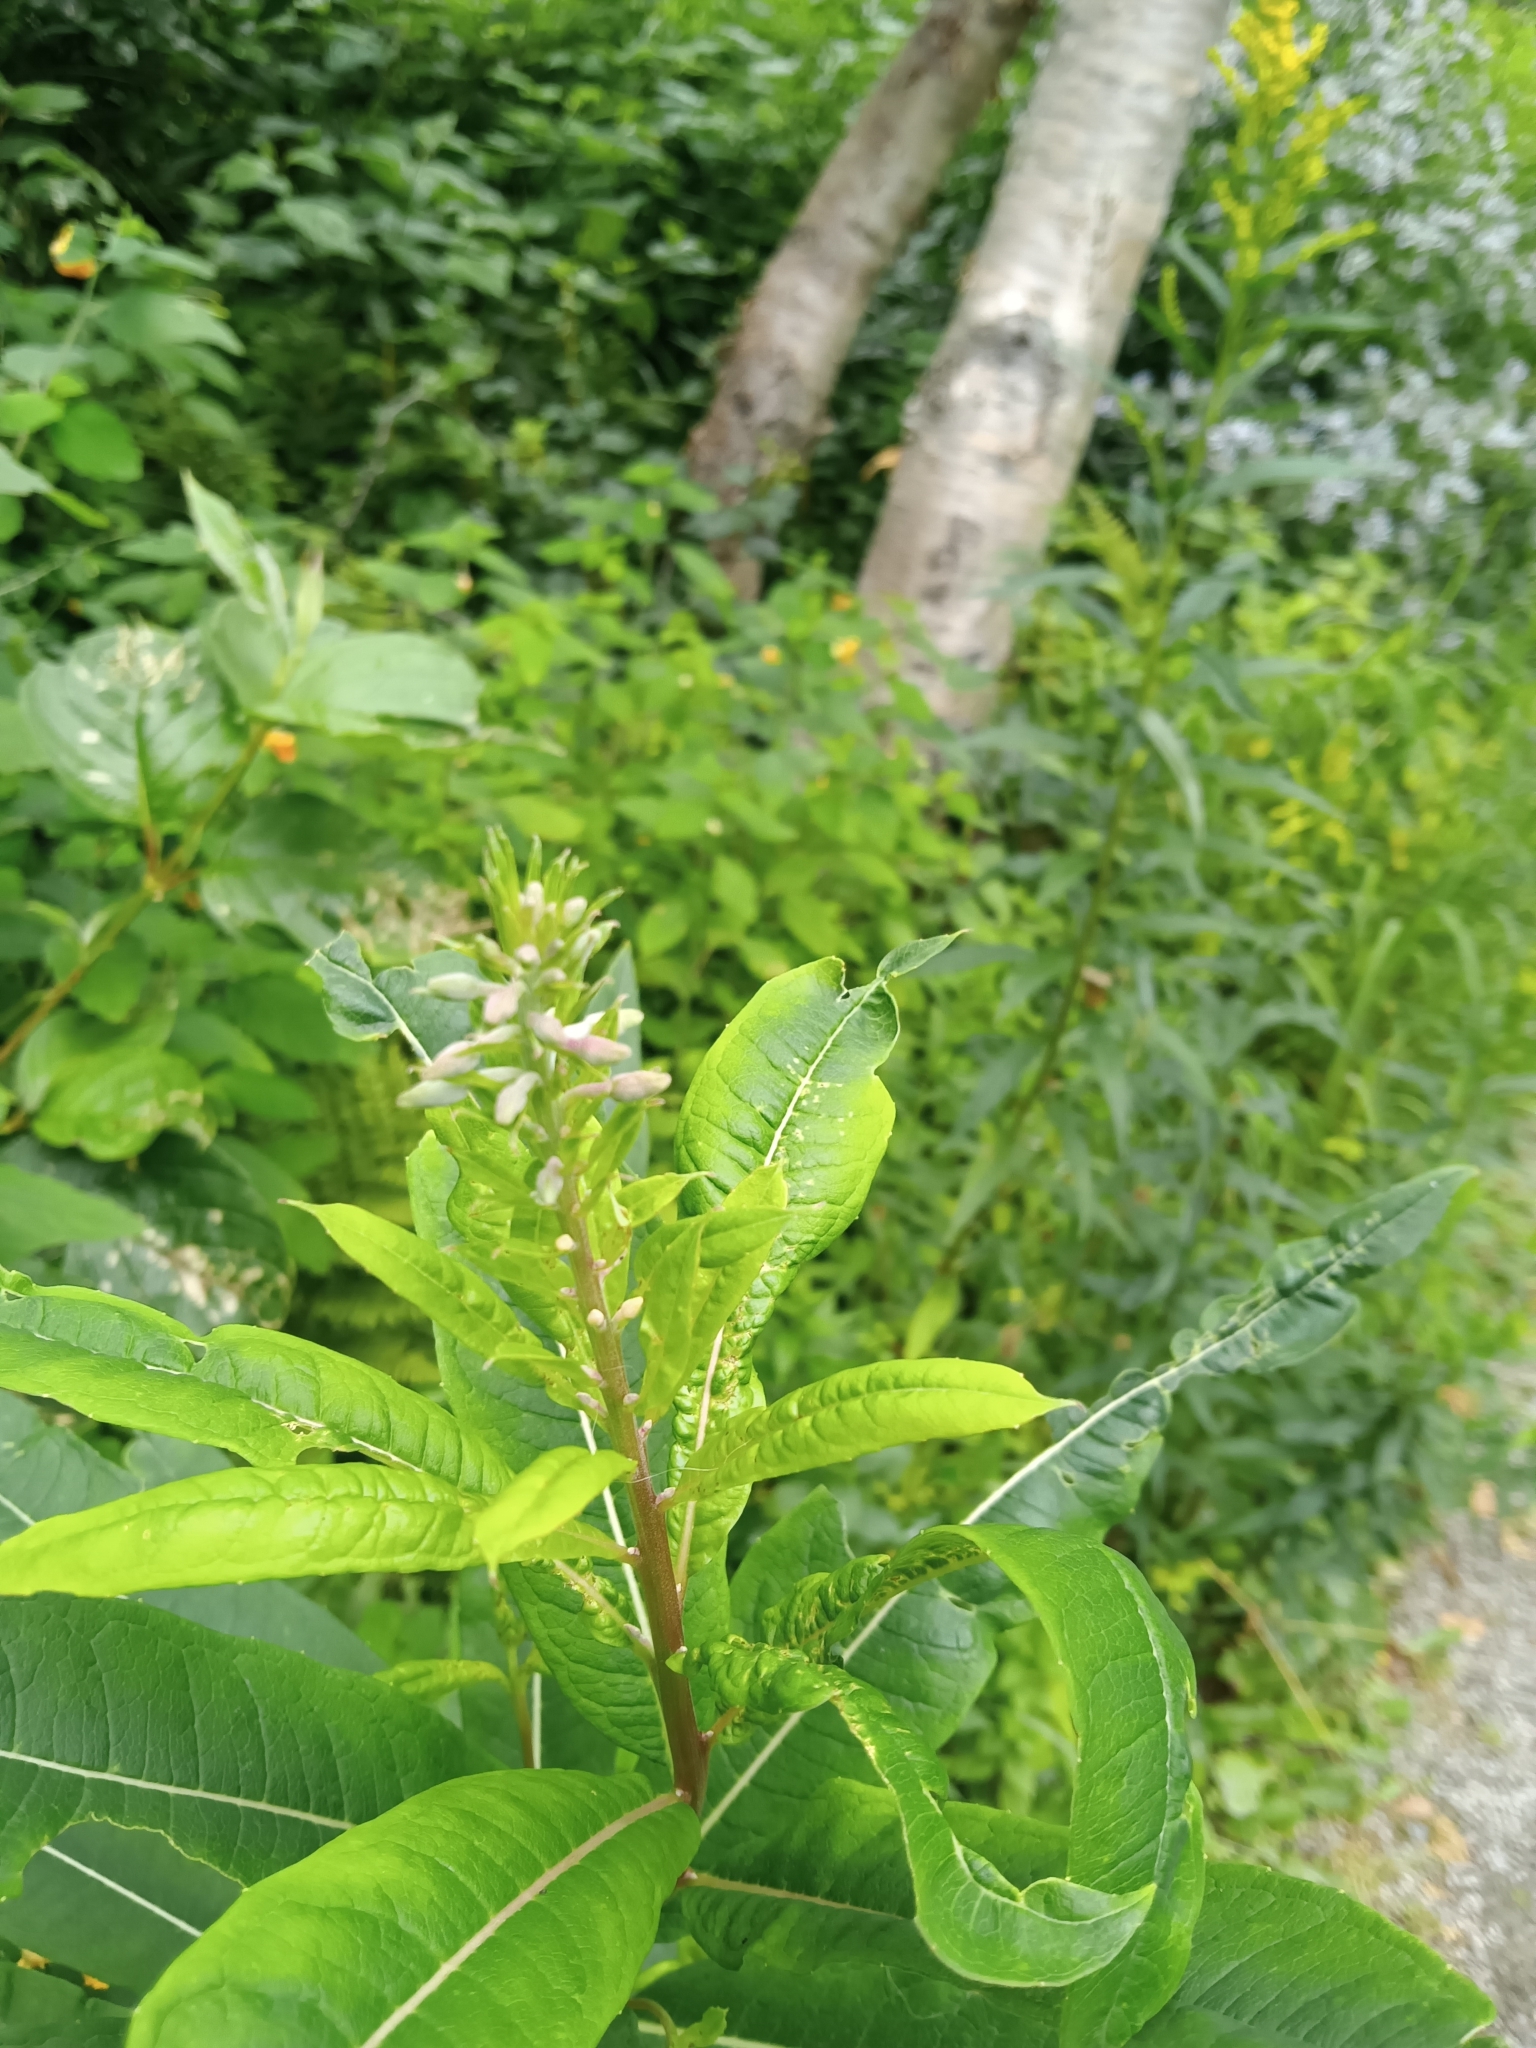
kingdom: Plantae
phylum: Tracheophyta
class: Magnoliopsida
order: Myrtales
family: Onagraceae
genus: Chamaenerion
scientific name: Chamaenerion angustifolium
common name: Fireweed
